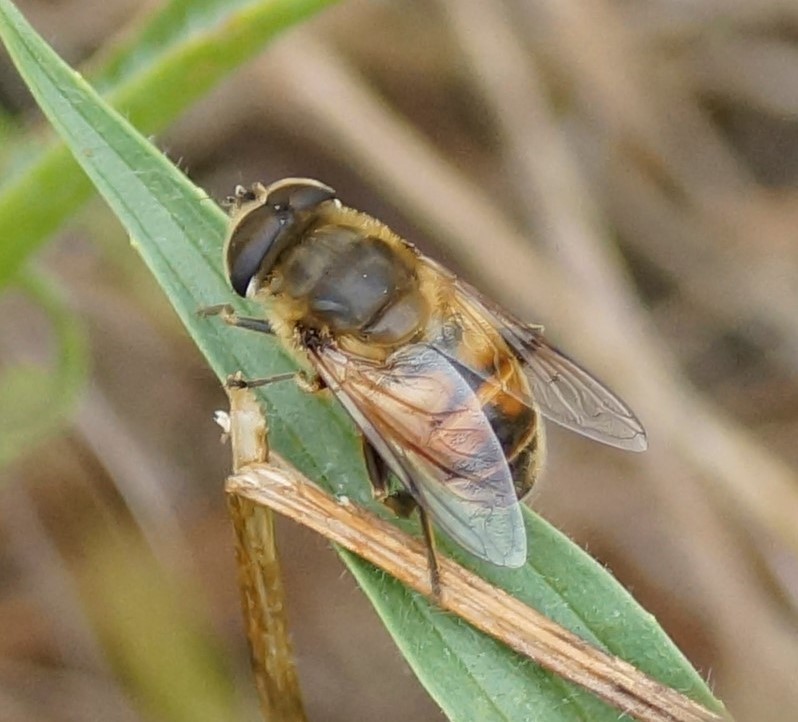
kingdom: Animalia
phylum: Arthropoda
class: Insecta
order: Diptera
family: Syrphidae
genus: Eristalis
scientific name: Eristalis tenax
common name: Drone fly
